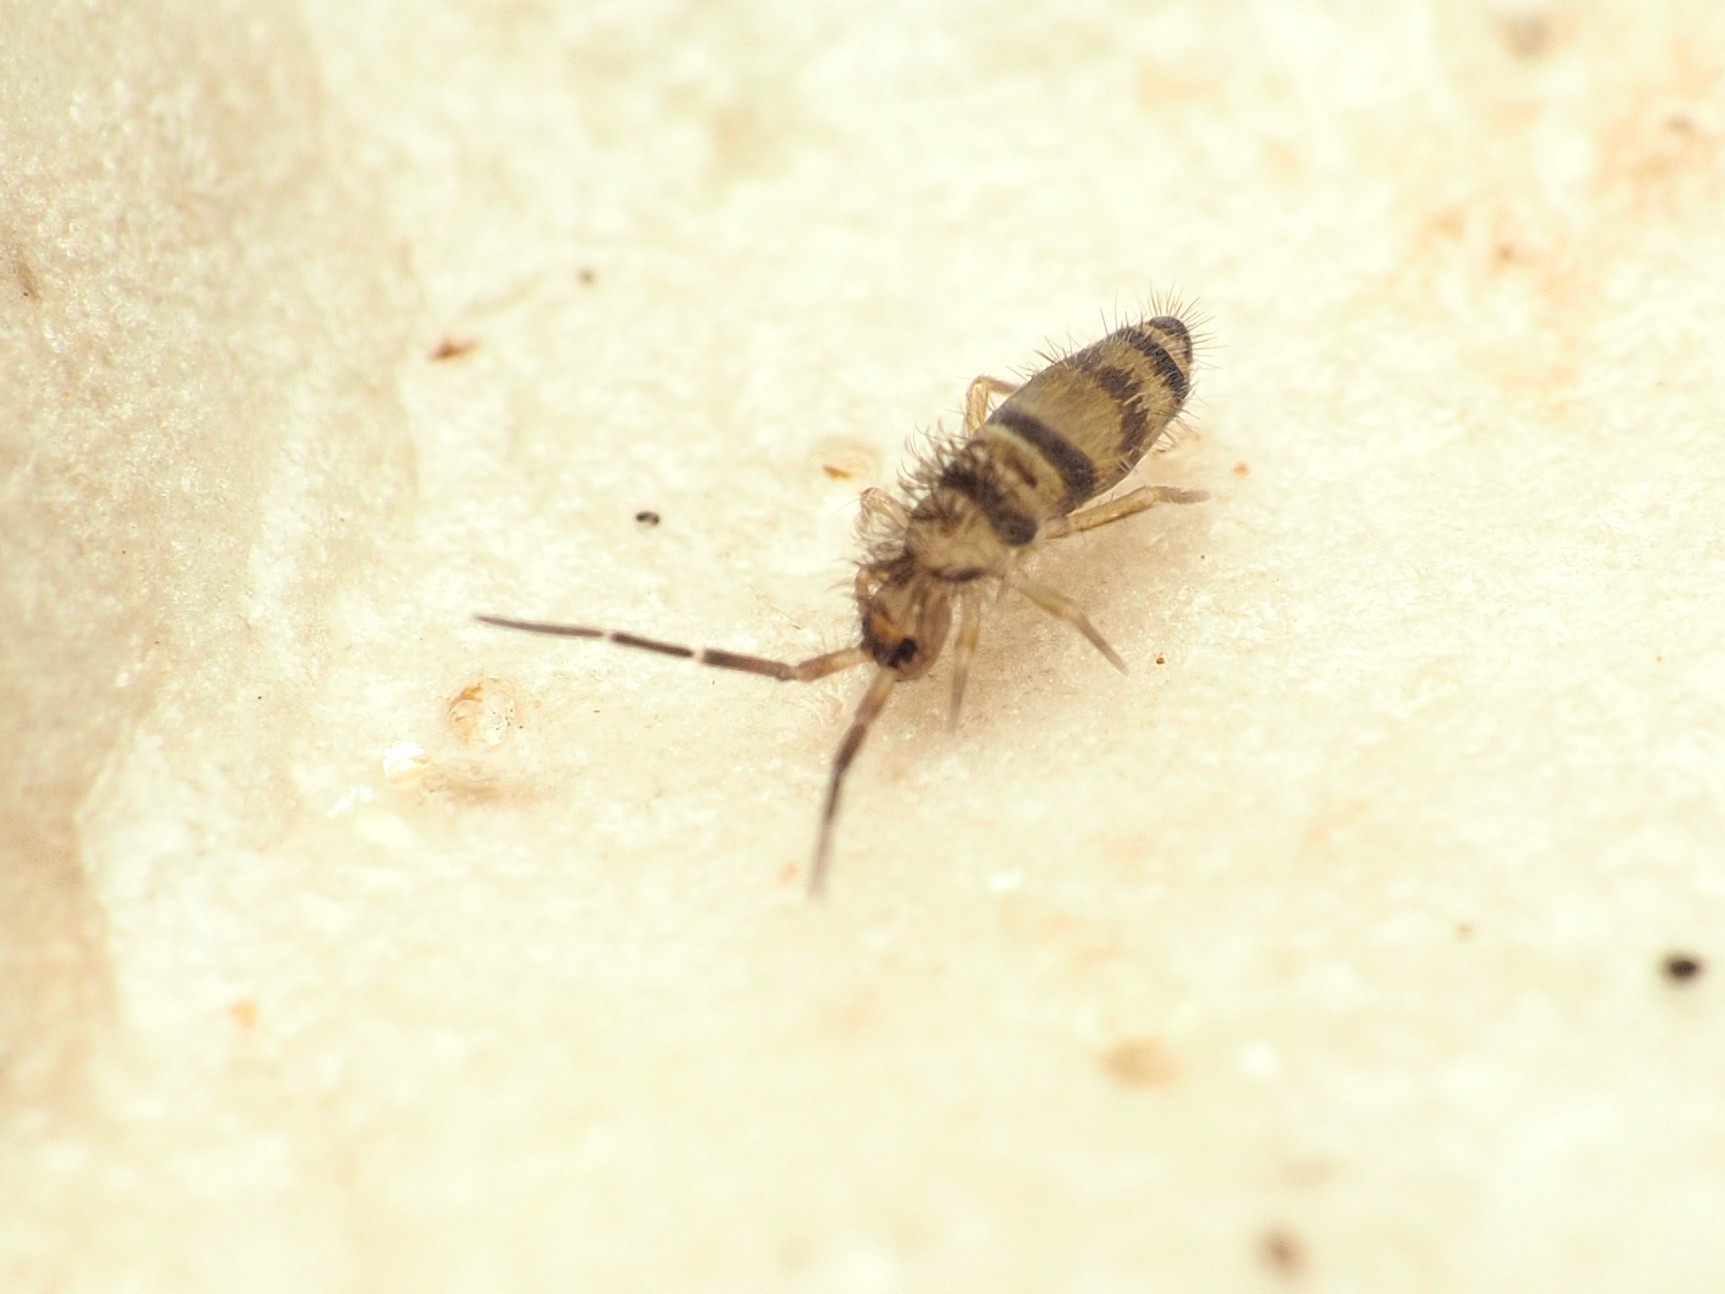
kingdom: Animalia
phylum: Arthropoda
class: Collembola
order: Entomobryomorpha
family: Entomobryidae
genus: Homidia
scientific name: Homidia sauteri
